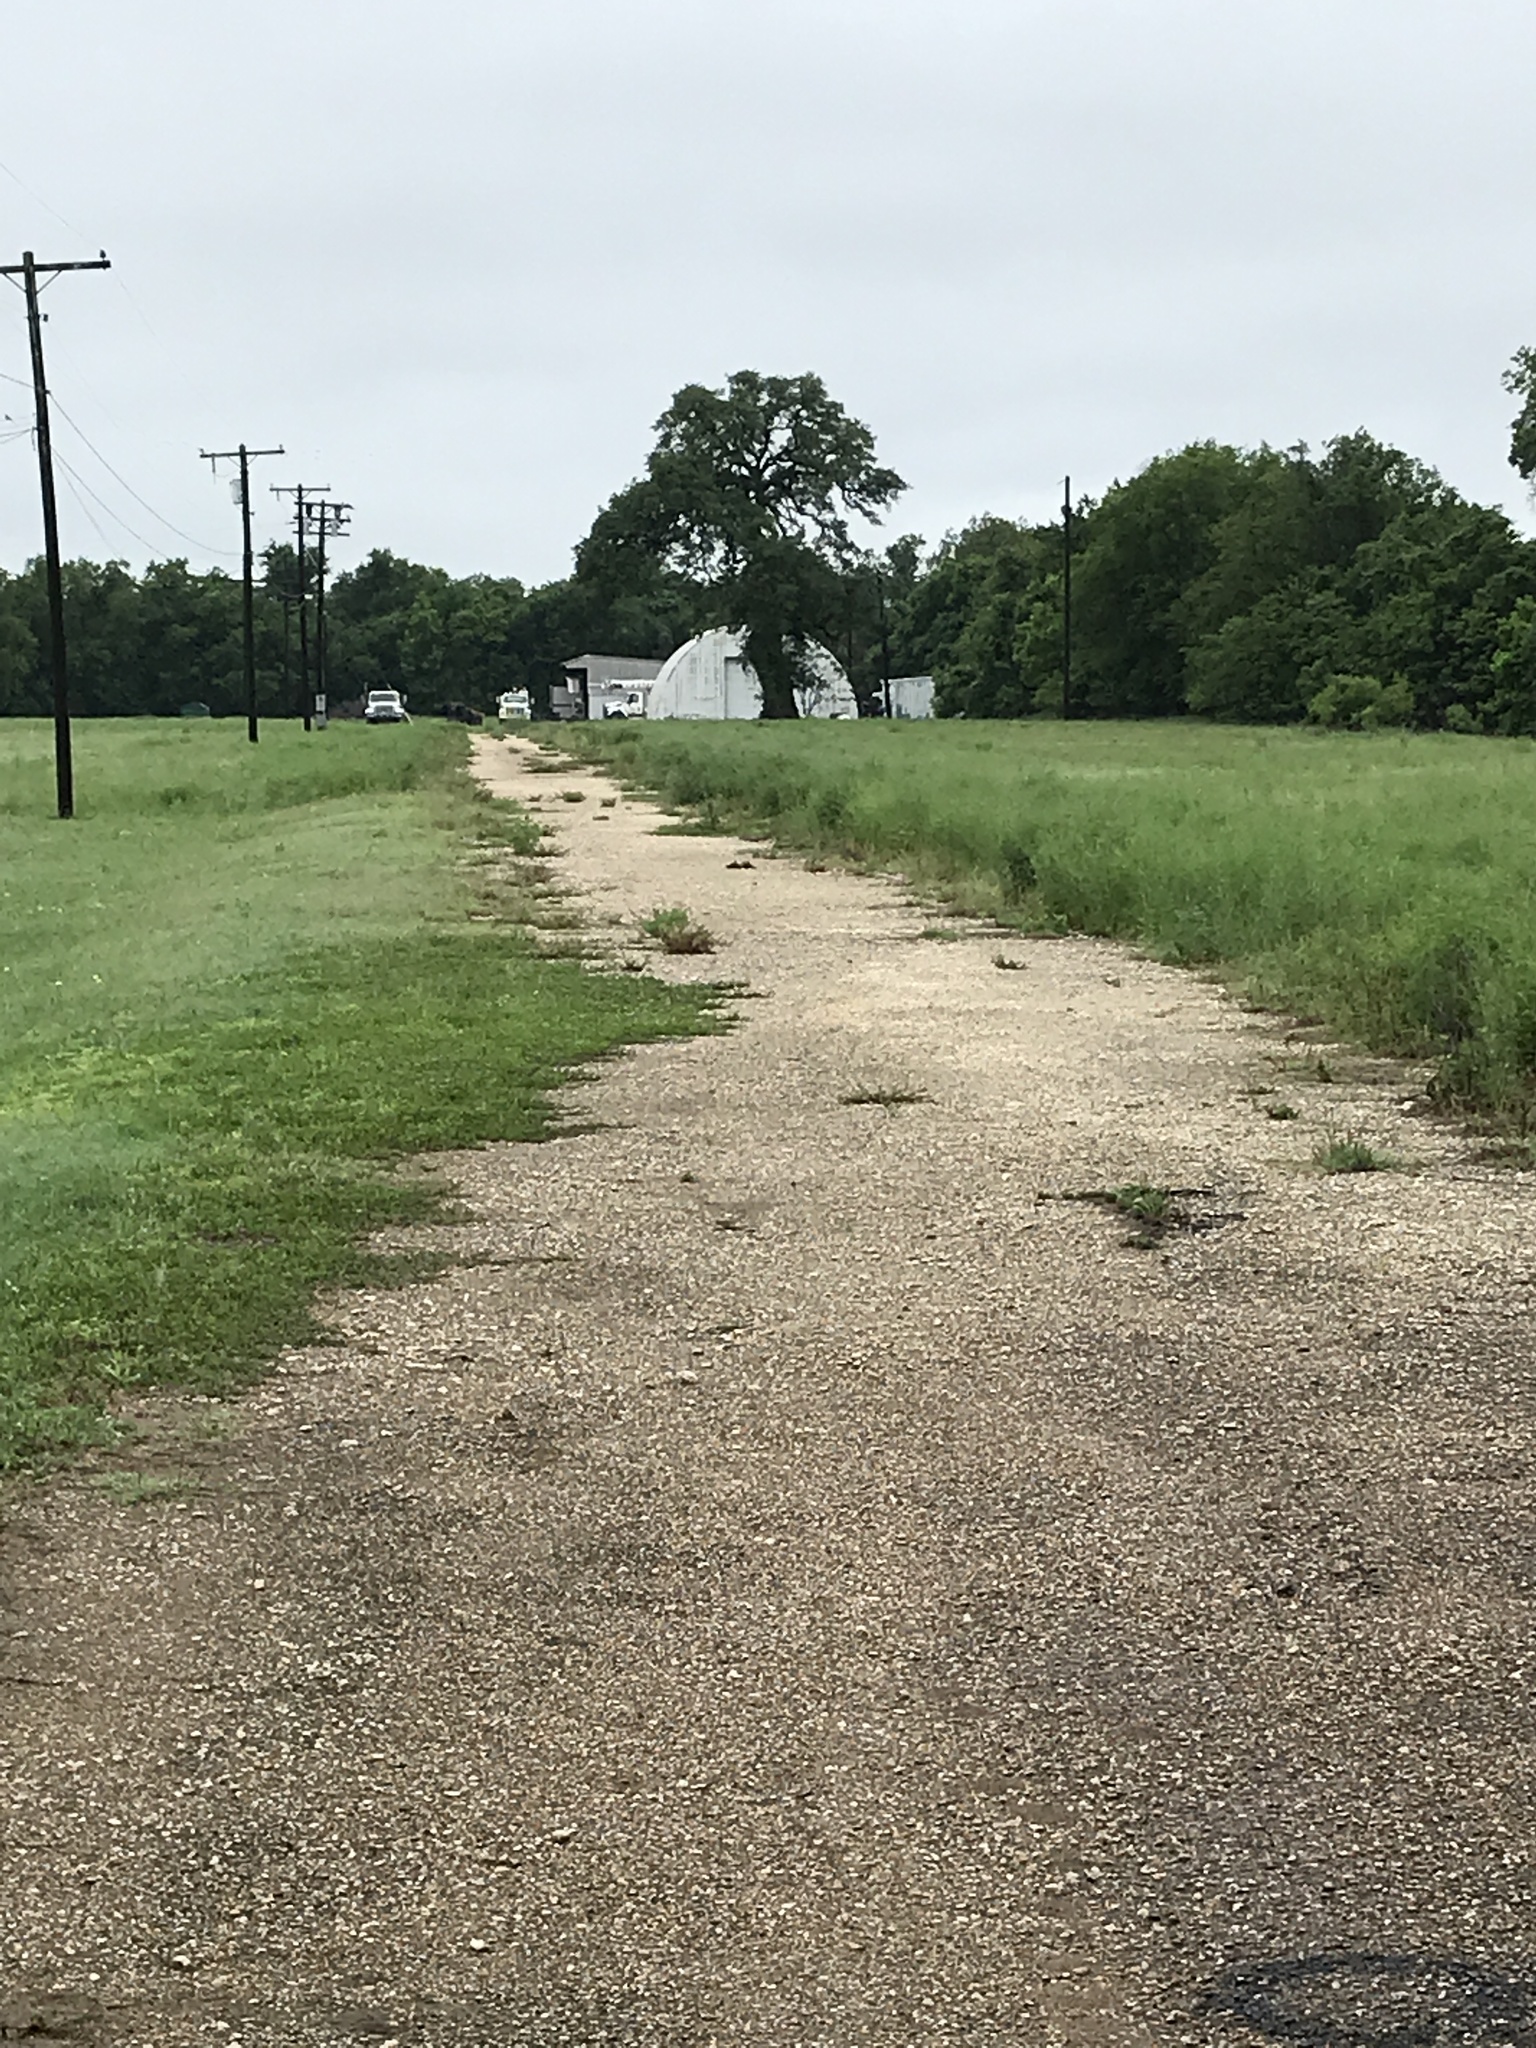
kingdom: Plantae
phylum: Tracheophyta
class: Magnoliopsida
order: Fagales
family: Fagaceae
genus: Quercus
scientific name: Quercus fusiformis
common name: Texas live oak
